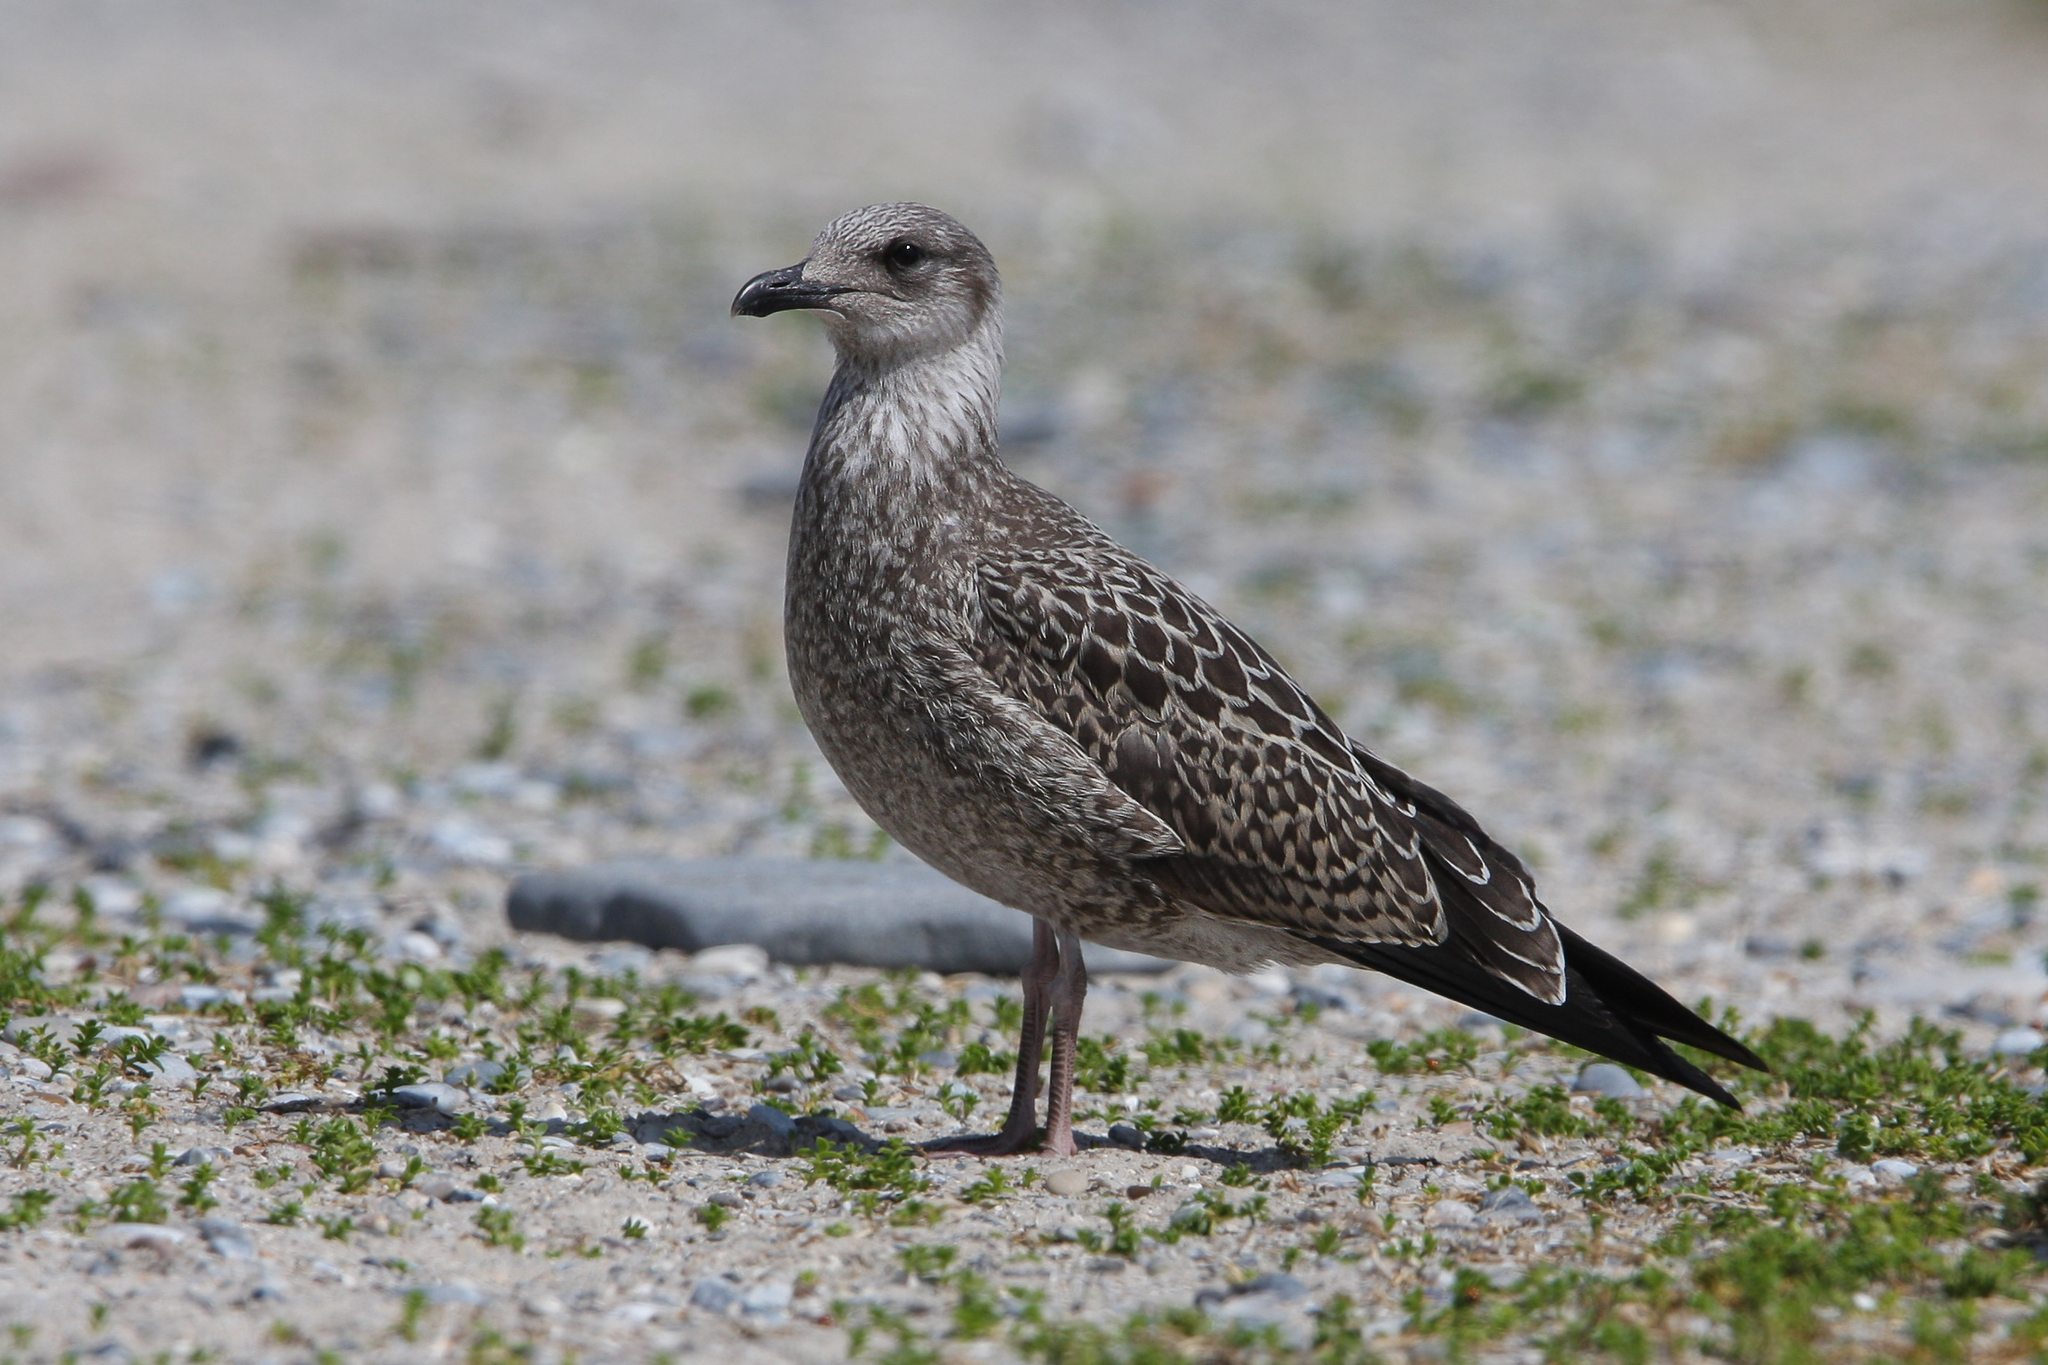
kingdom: Animalia
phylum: Chordata
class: Aves
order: Charadriiformes
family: Laridae
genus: Larus
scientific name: Larus fuscus
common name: Lesser black-backed gull
